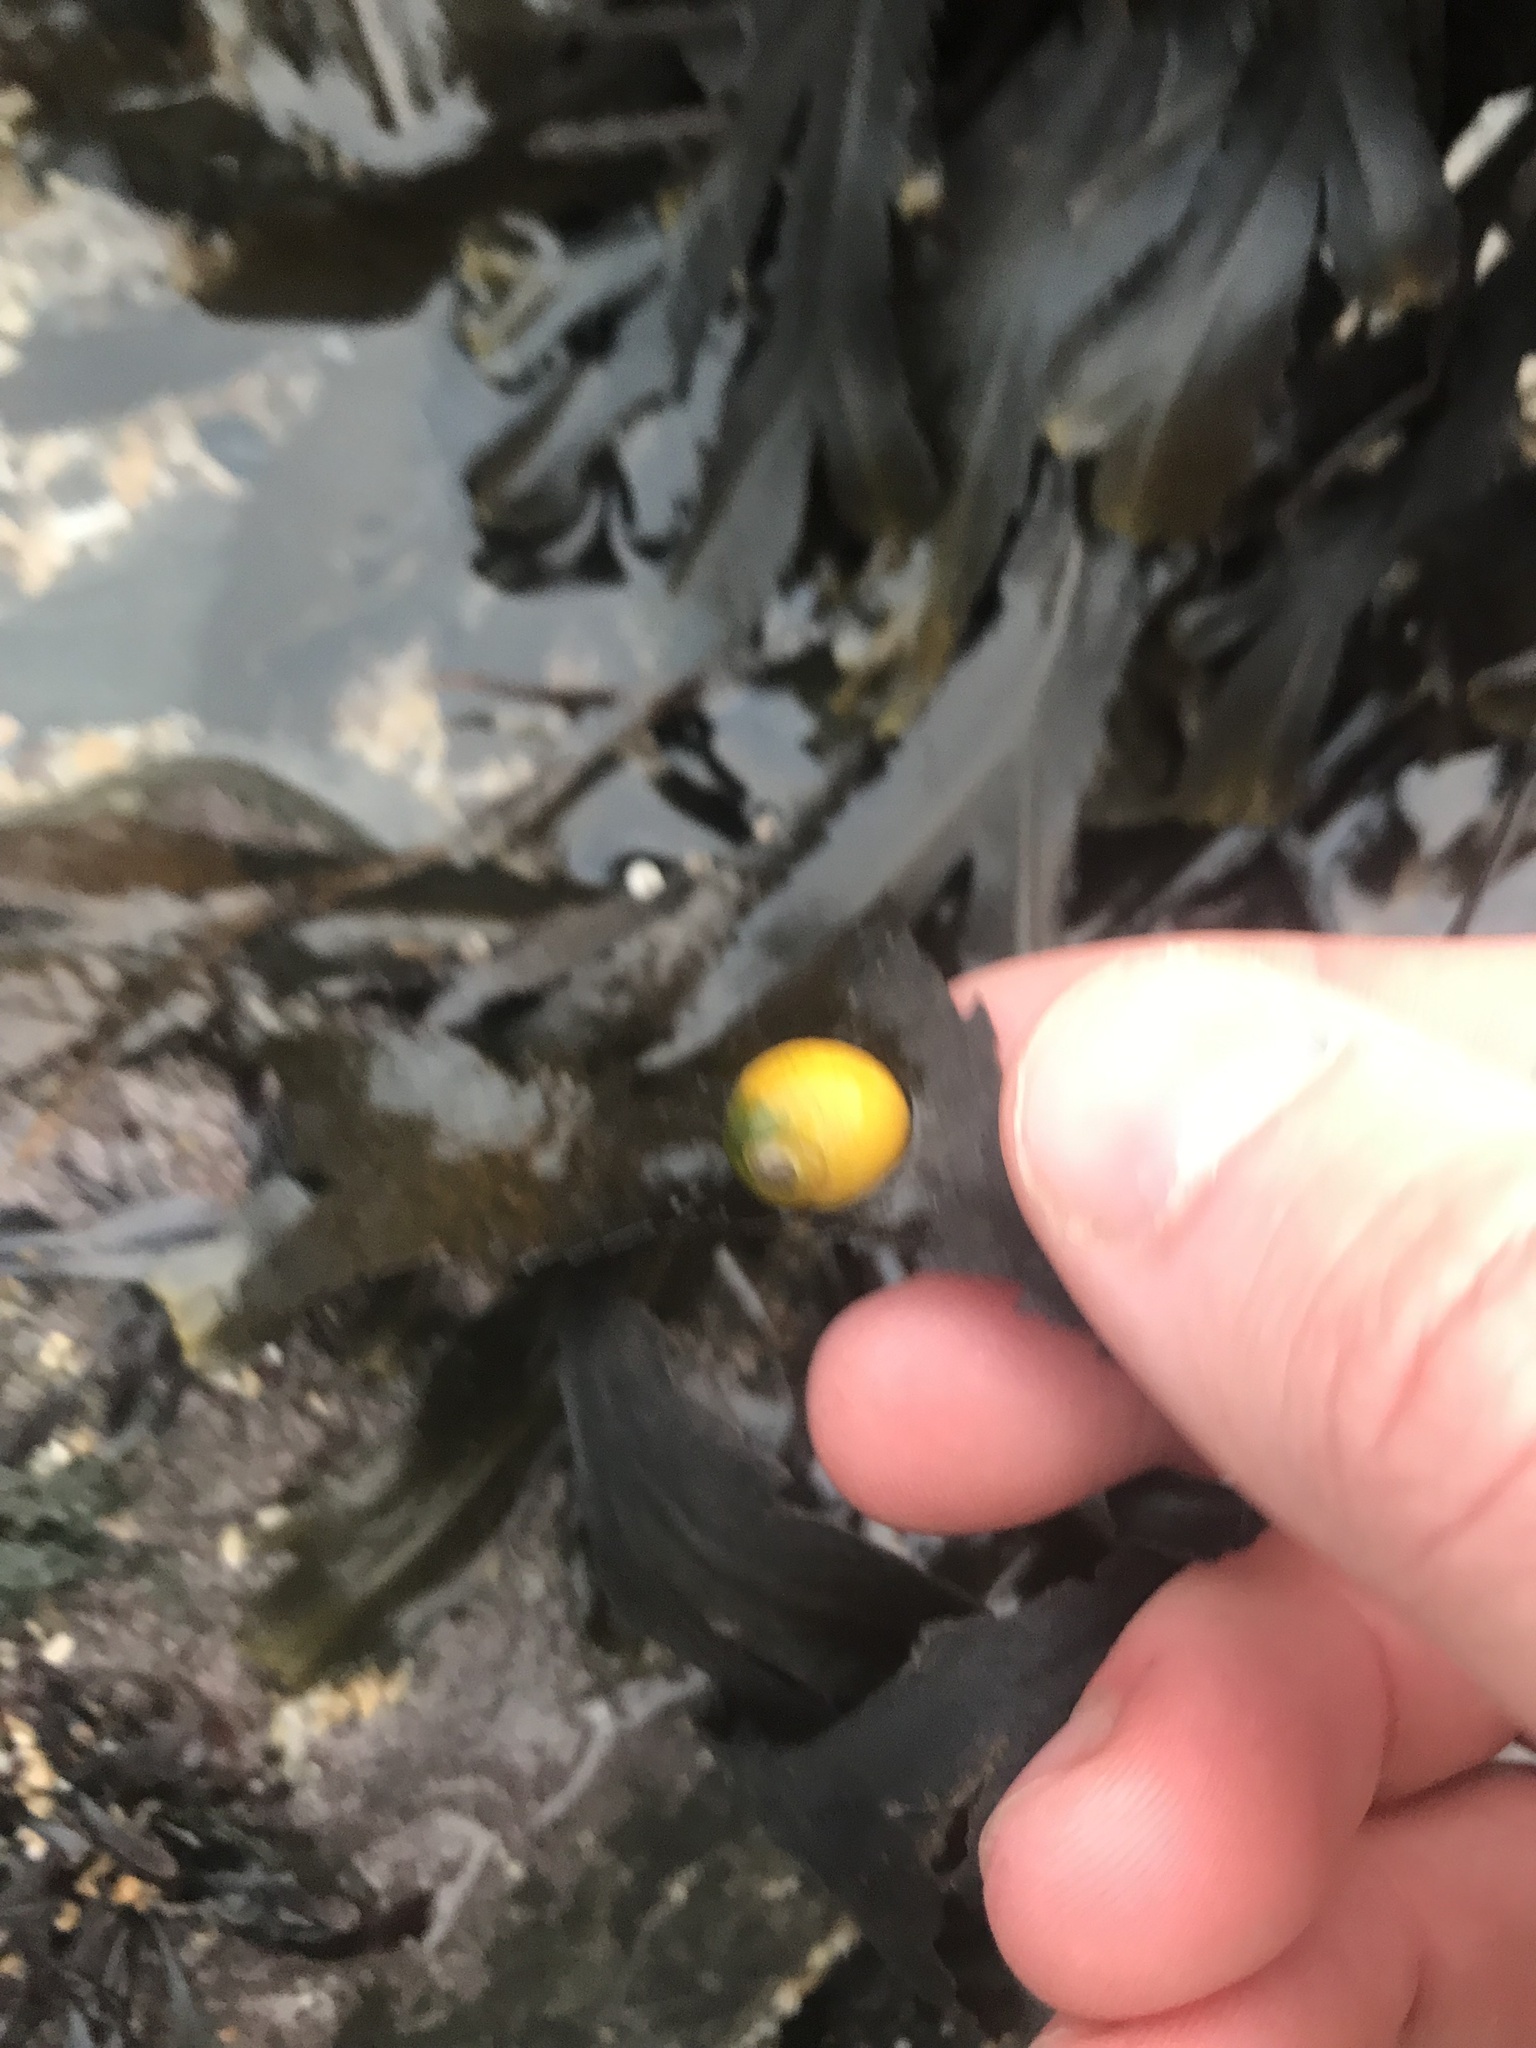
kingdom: Animalia
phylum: Mollusca
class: Gastropoda
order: Littorinimorpha
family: Littorinidae
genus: Littorina
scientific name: Littorina obtusata
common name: Flat periwinkle
